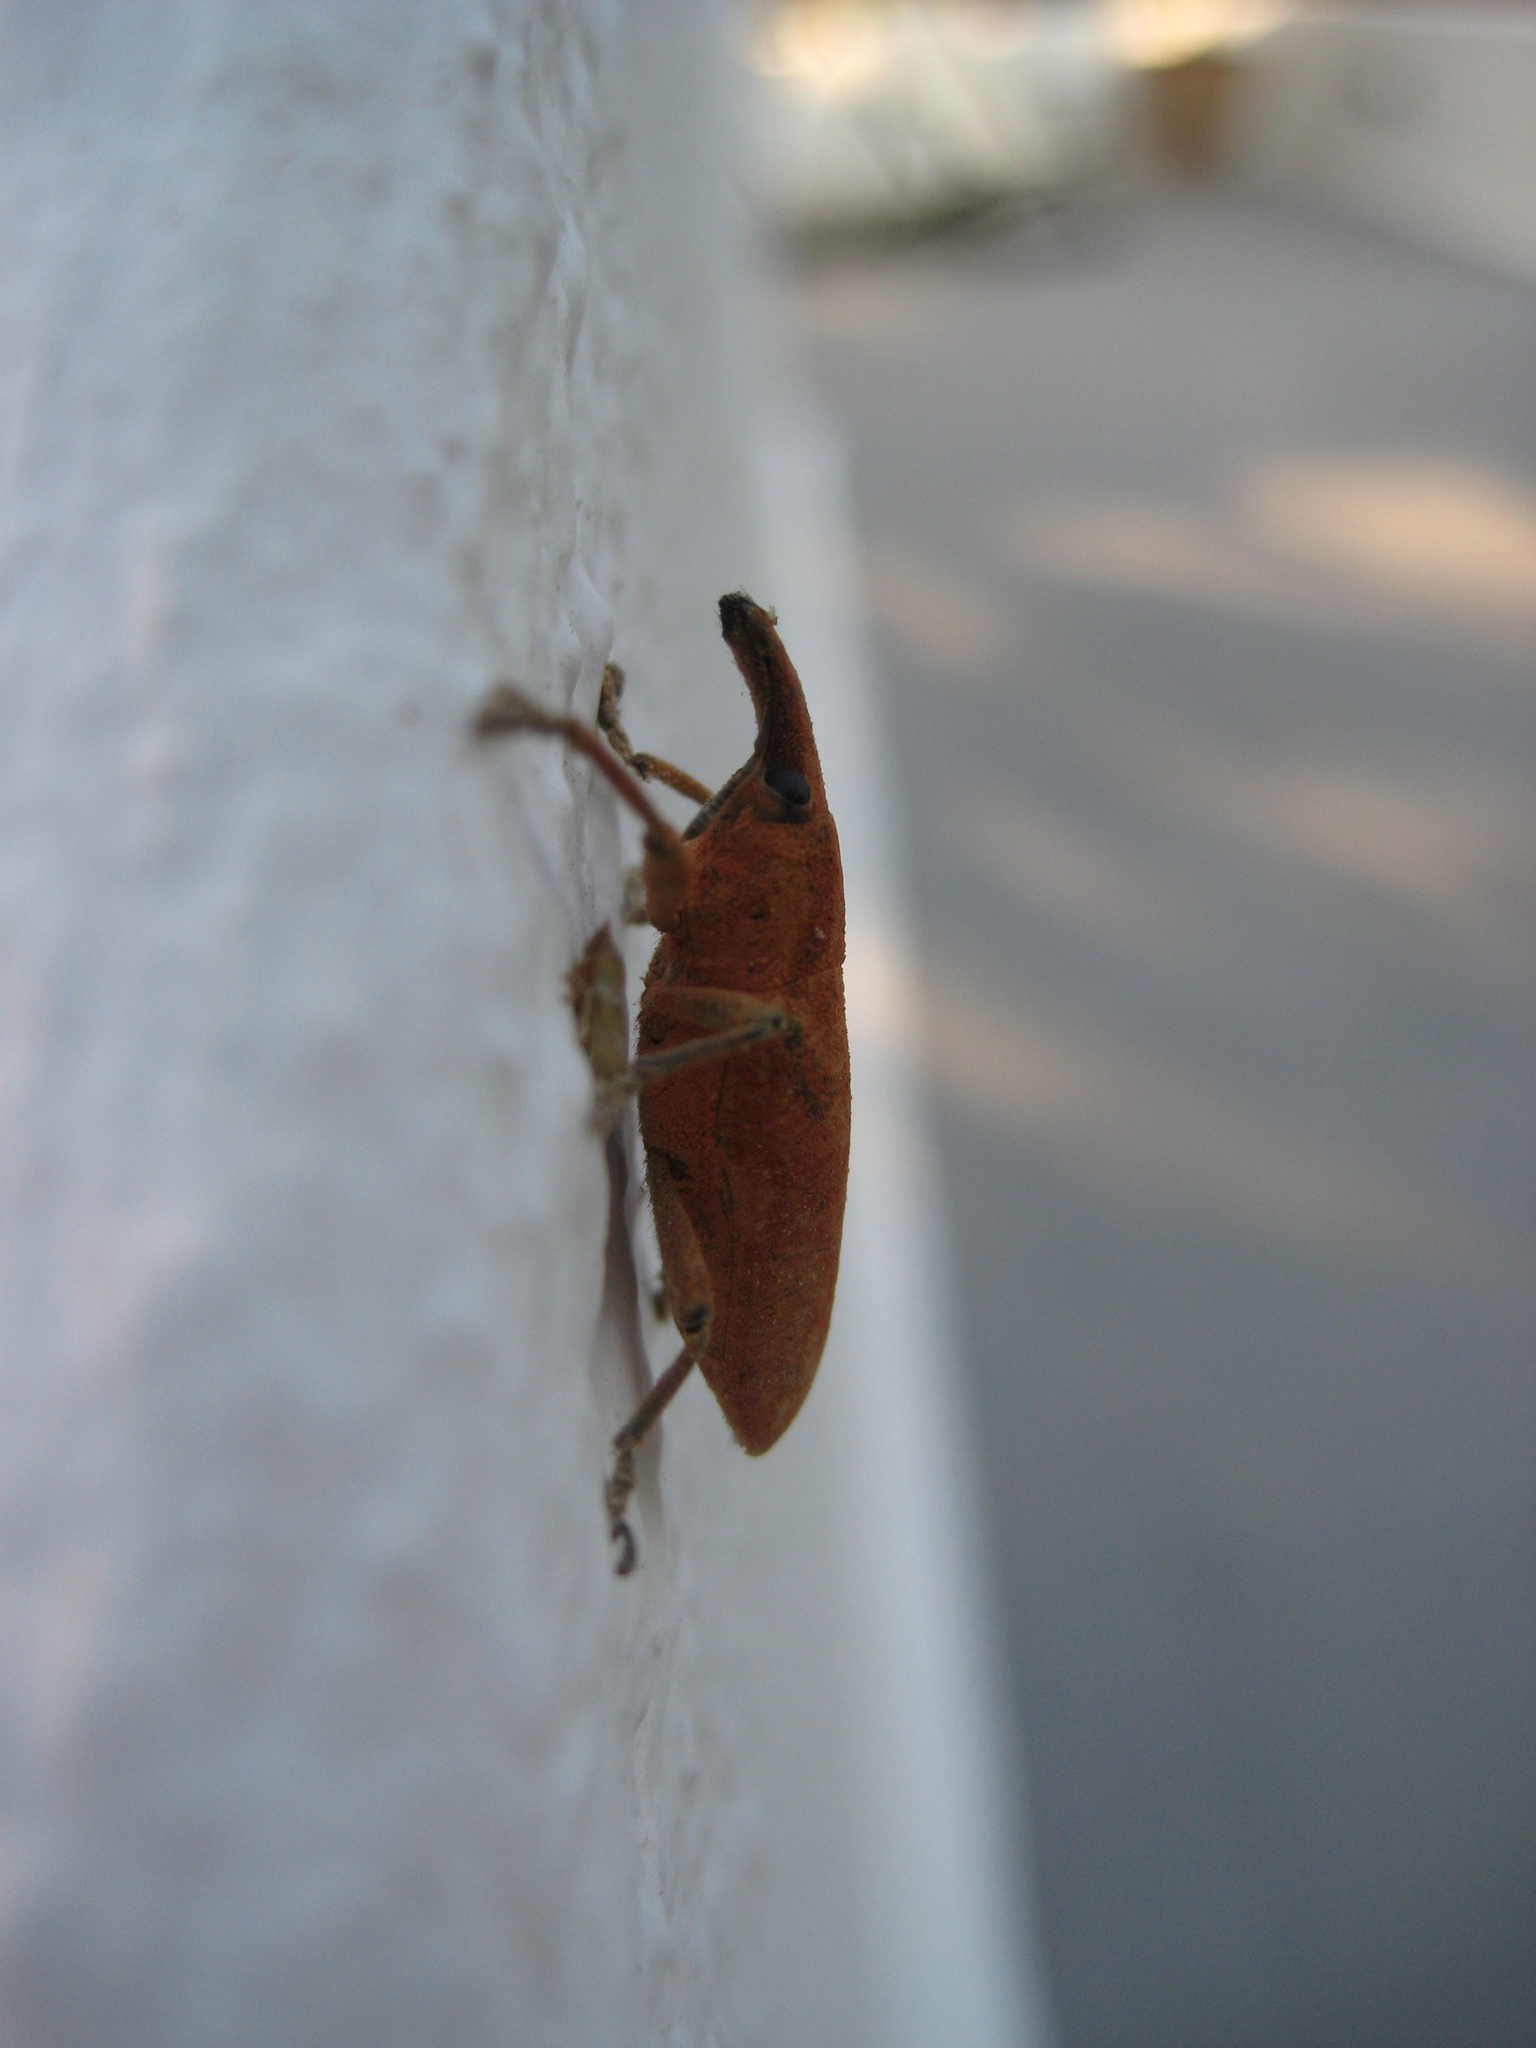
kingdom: Animalia
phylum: Arthropoda
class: Insecta
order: Coleoptera
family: Curculionidae
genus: Lixus
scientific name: Lixus pulverulentus
